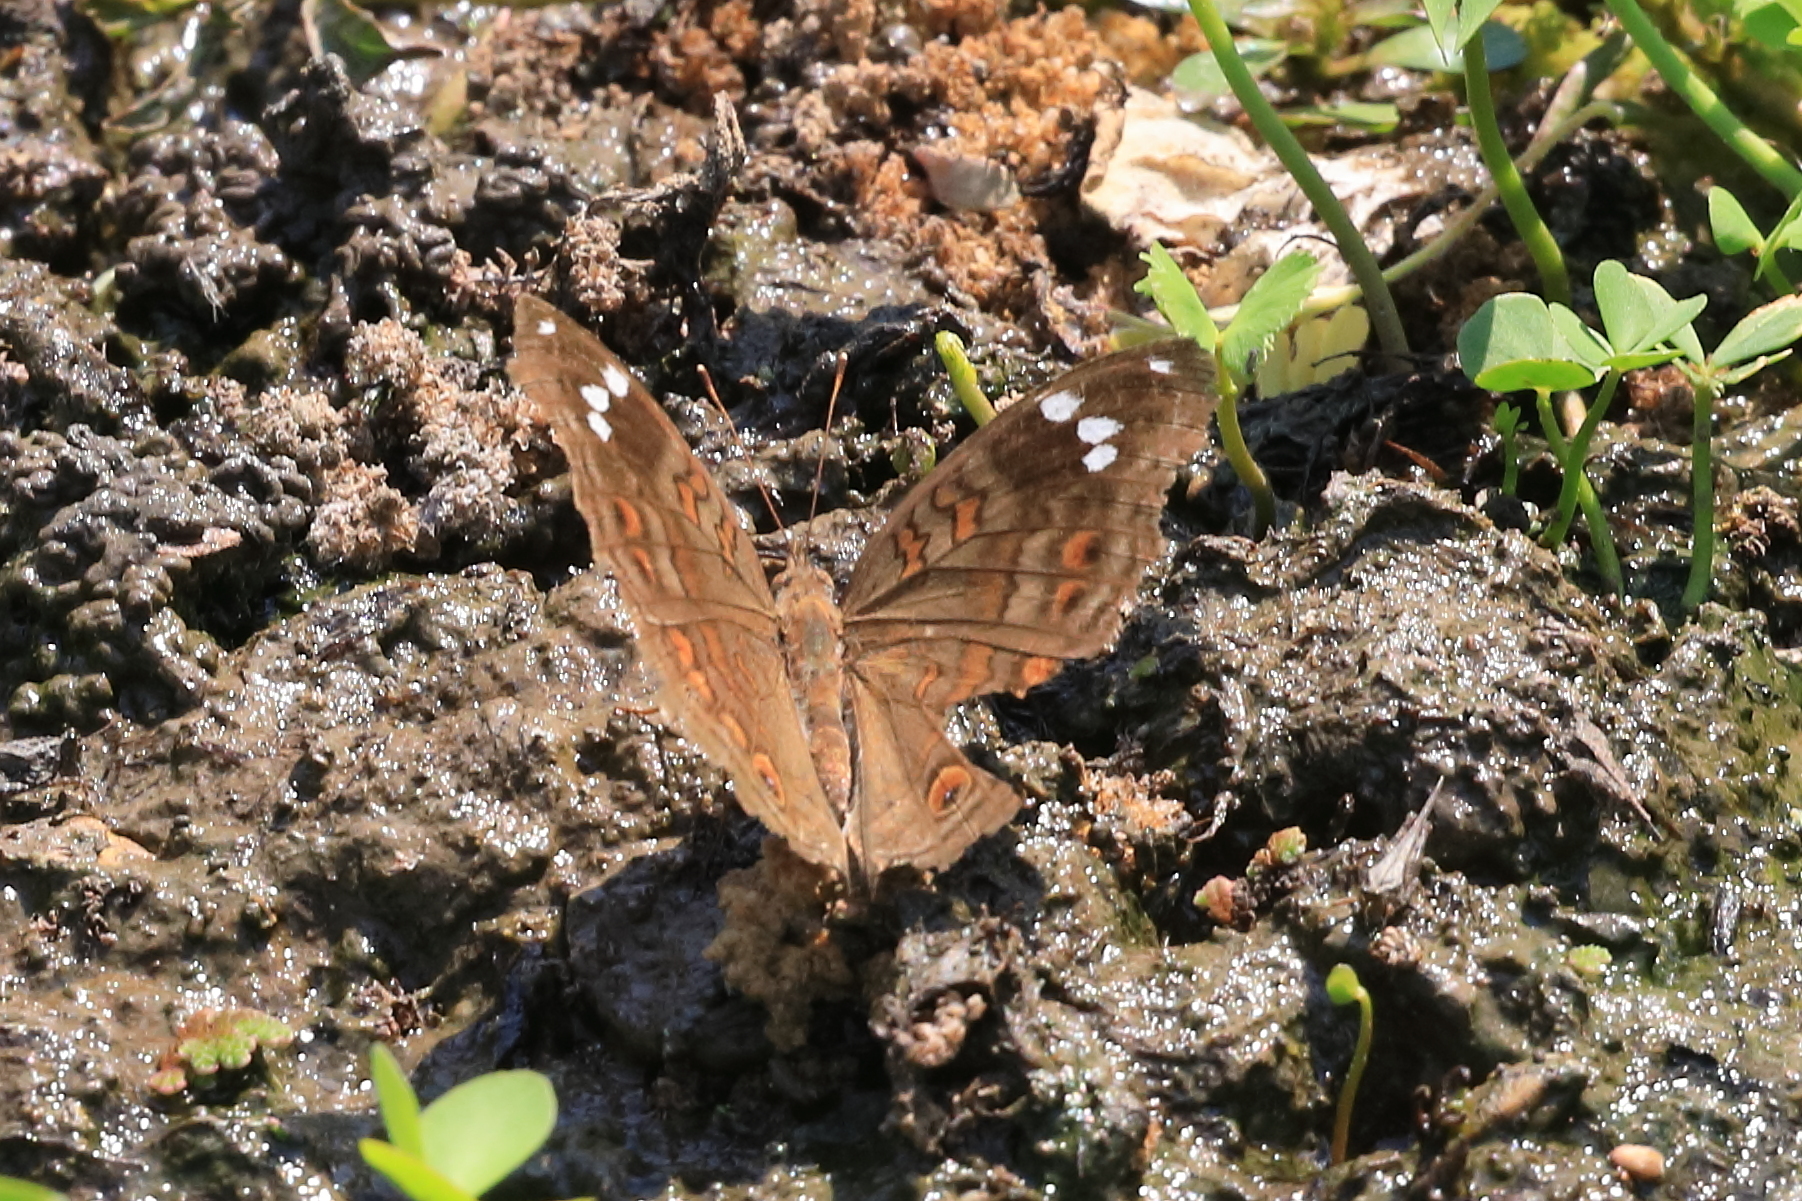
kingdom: Animalia
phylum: Arthropoda
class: Insecta
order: Lepidoptera
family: Nymphalidae
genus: Junonia
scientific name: Junonia natalica
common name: Brown pansy
